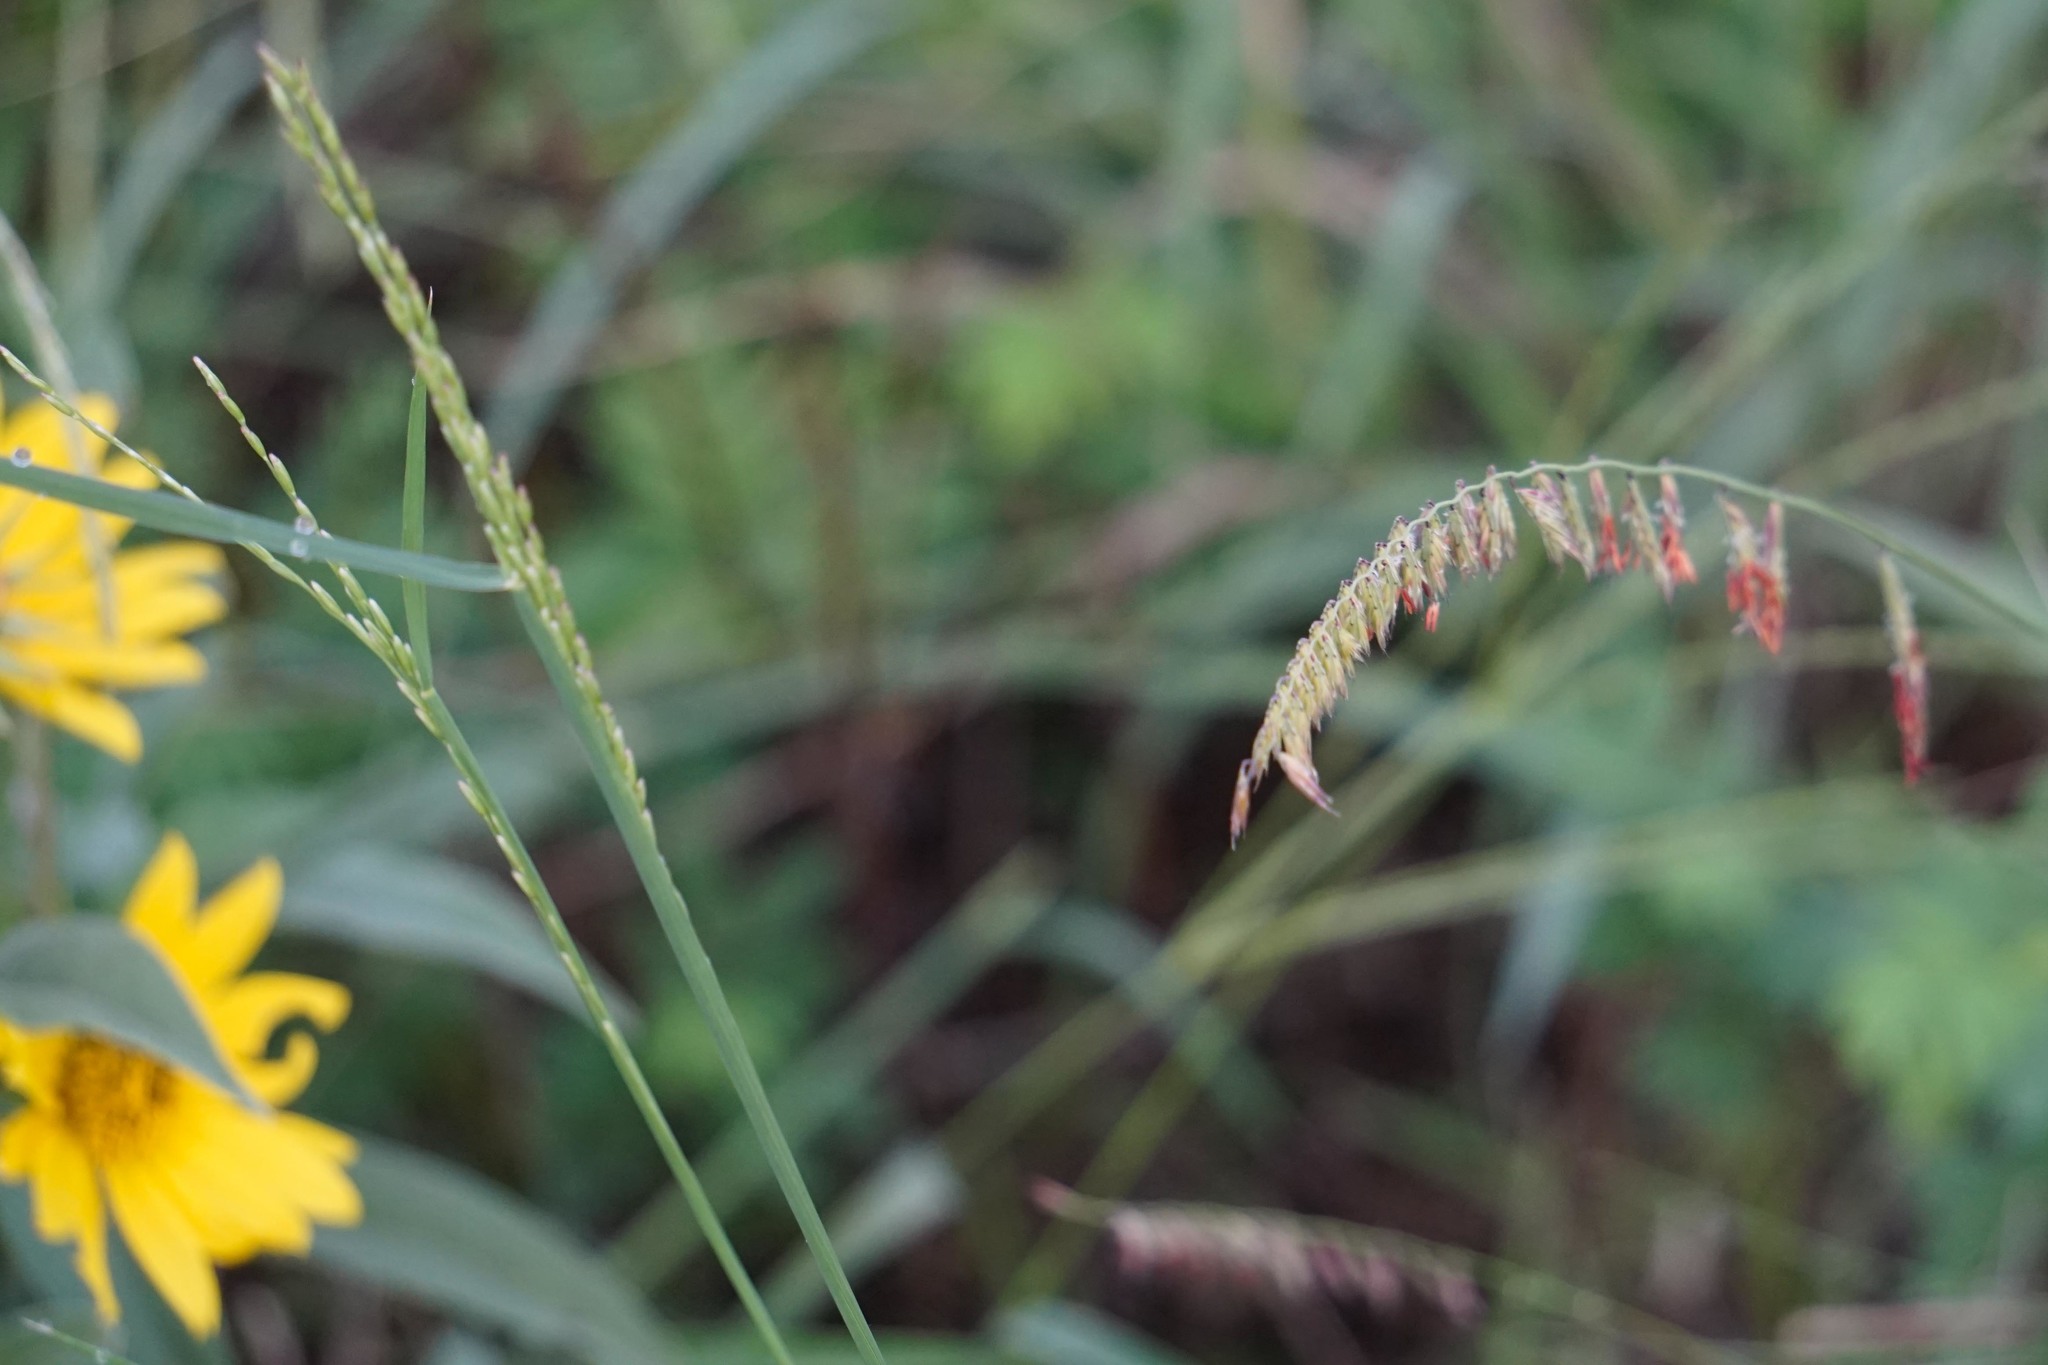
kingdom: Plantae
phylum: Tracheophyta
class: Liliopsida
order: Poales
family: Poaceae
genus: Bouteloua
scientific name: Bouteloua curtipendula
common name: Side-oats grama
